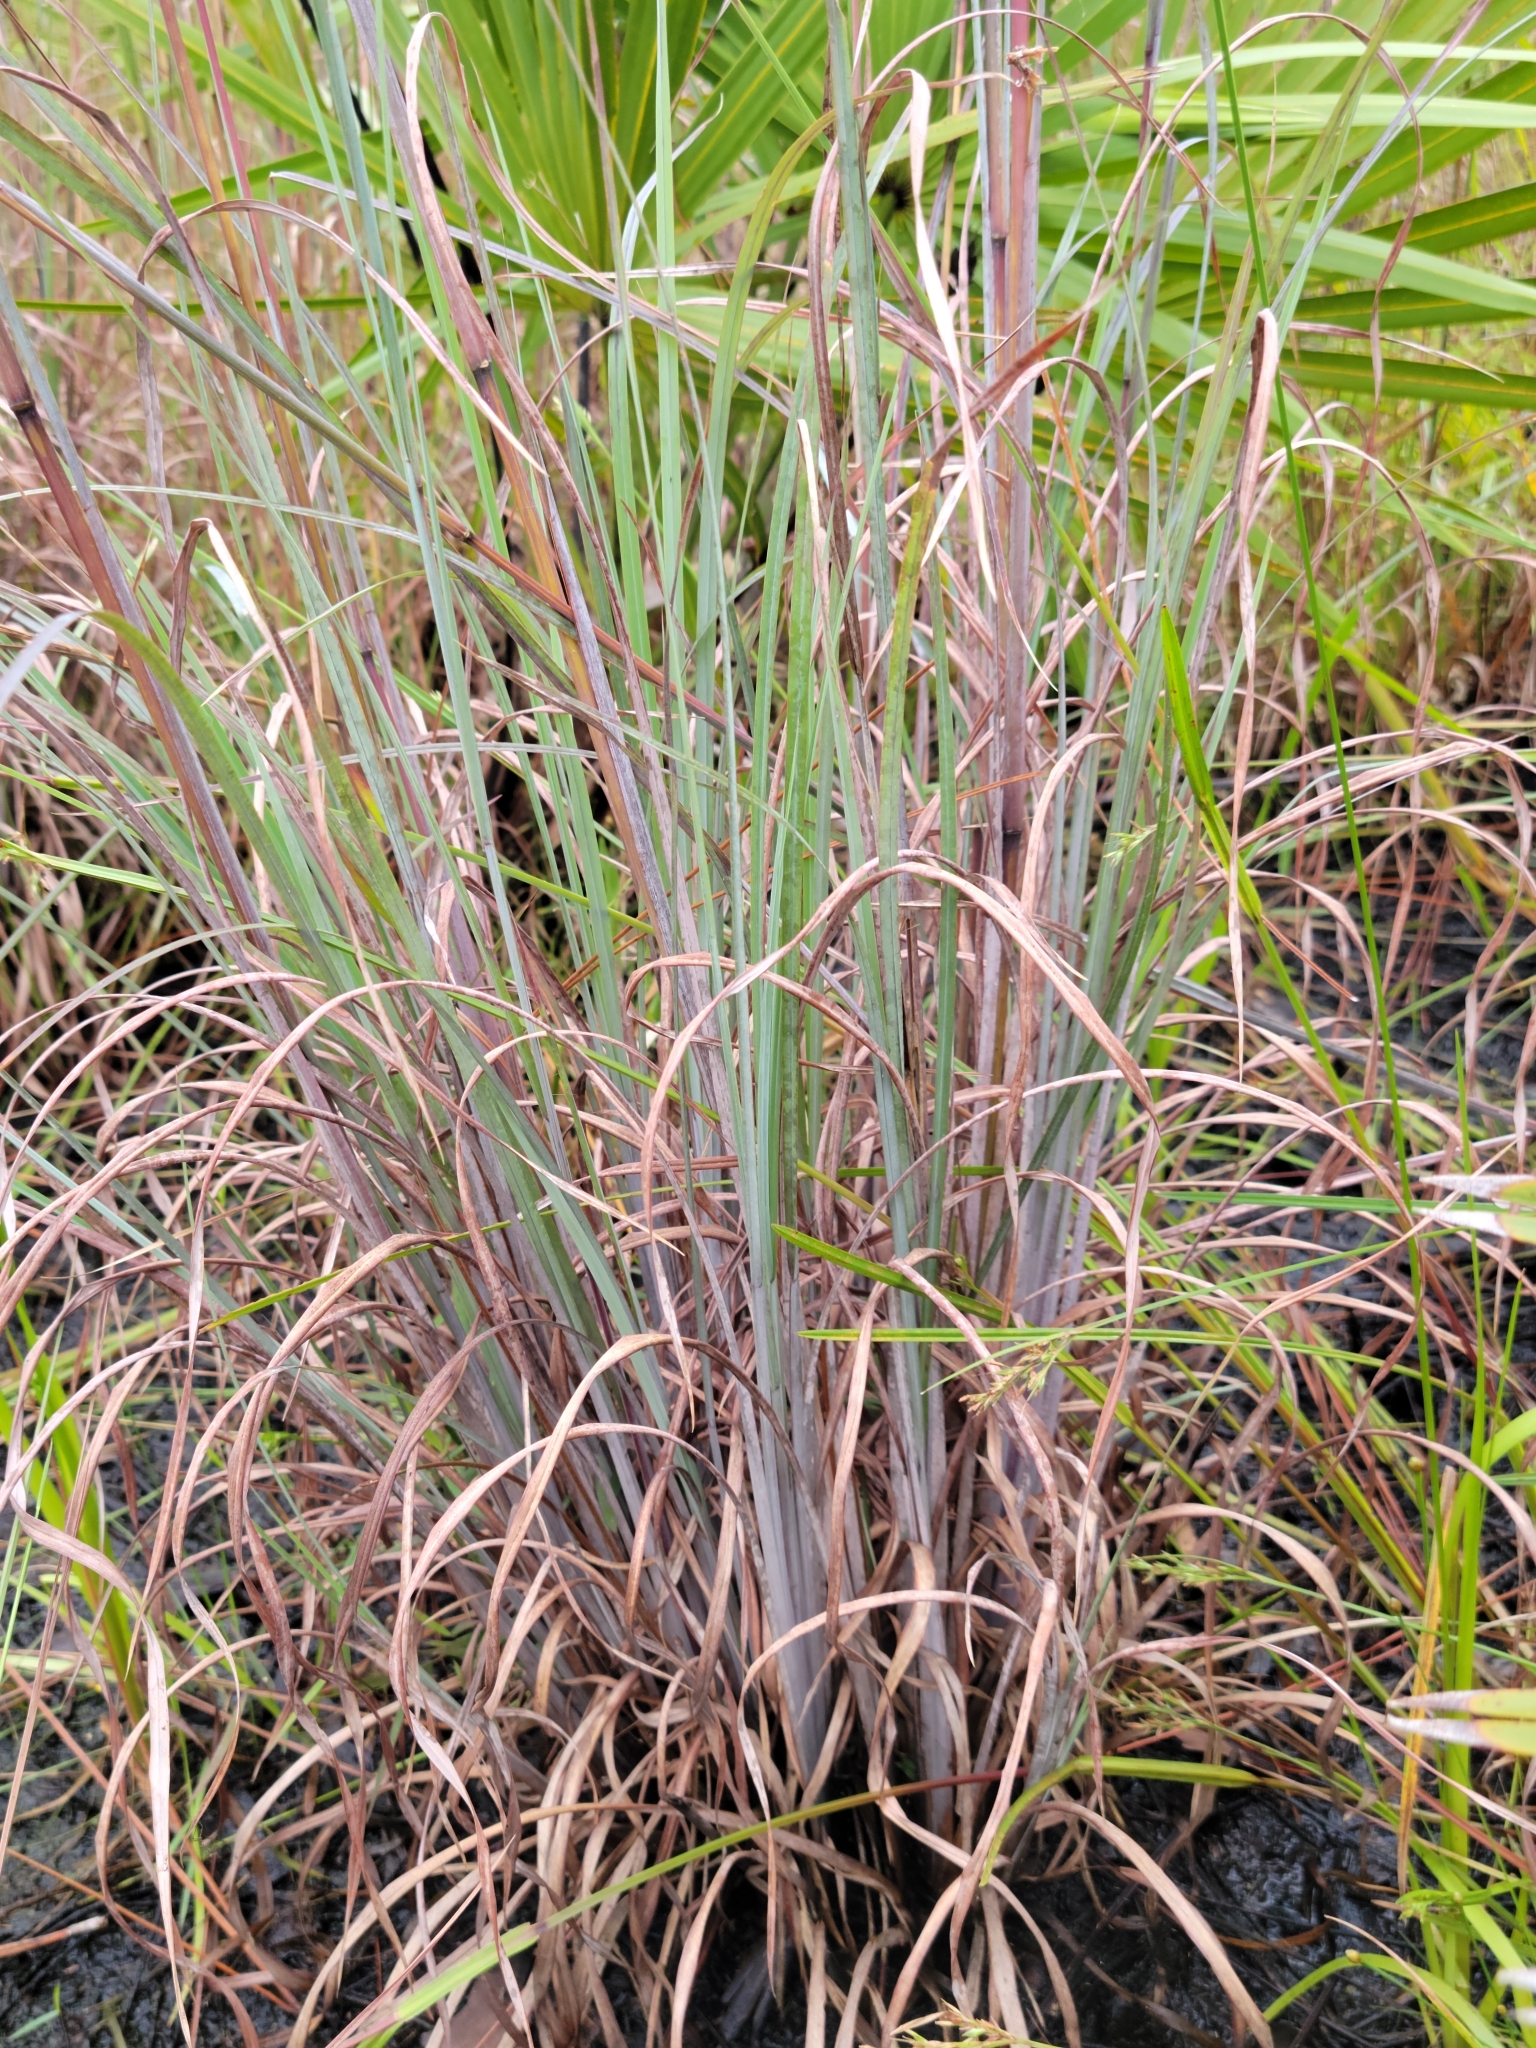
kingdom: Plantae
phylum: Tracheophyta
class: Liliopsida
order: Poales
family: Poaceae
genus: Andropogon
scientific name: Andropogon cretaceus
